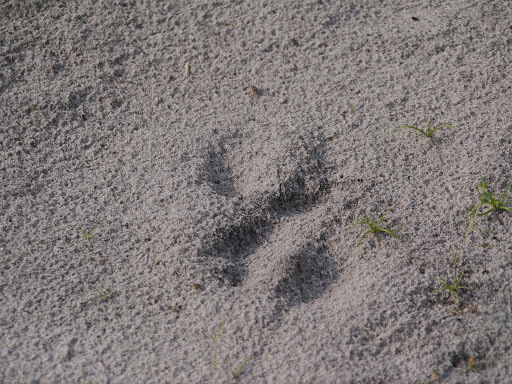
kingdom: Animalia
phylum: Chordata
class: Mammalia
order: Artiodactyla
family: Bovidae
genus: Syncerus
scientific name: Syncerus caffer
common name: African buffalo
